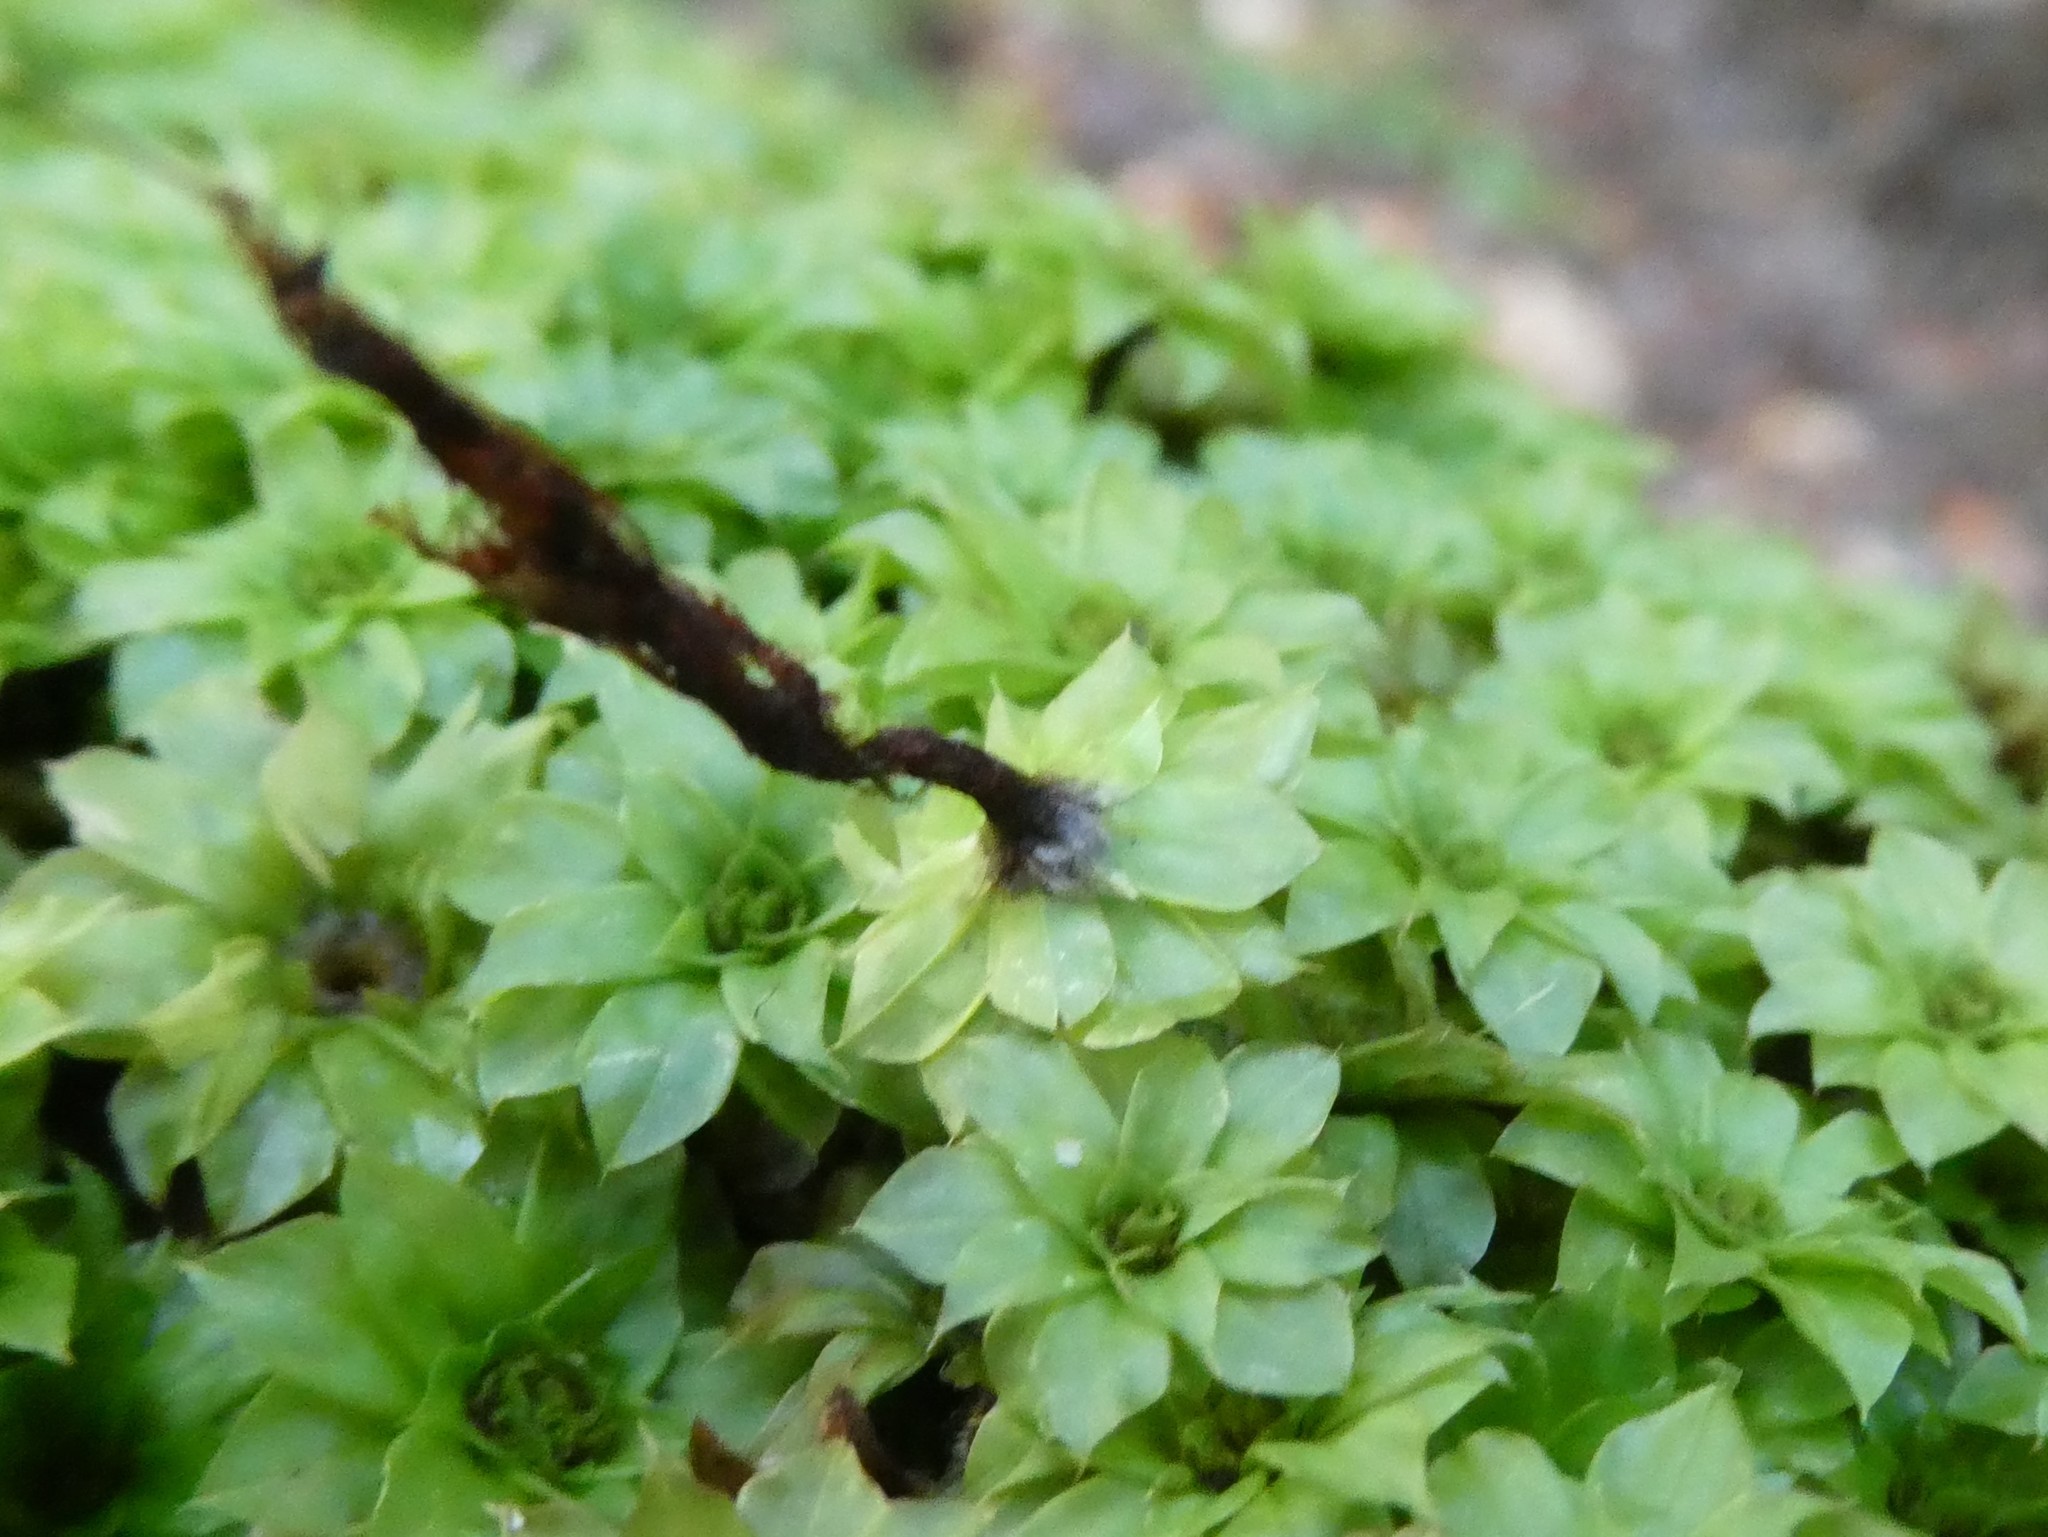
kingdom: Plantae
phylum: Bryophyta
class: Bryopsida
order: Bryales
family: Bryaceae
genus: Rhodobryum
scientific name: Rhodobryum ontariense
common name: Ontario rhodobryum moss
